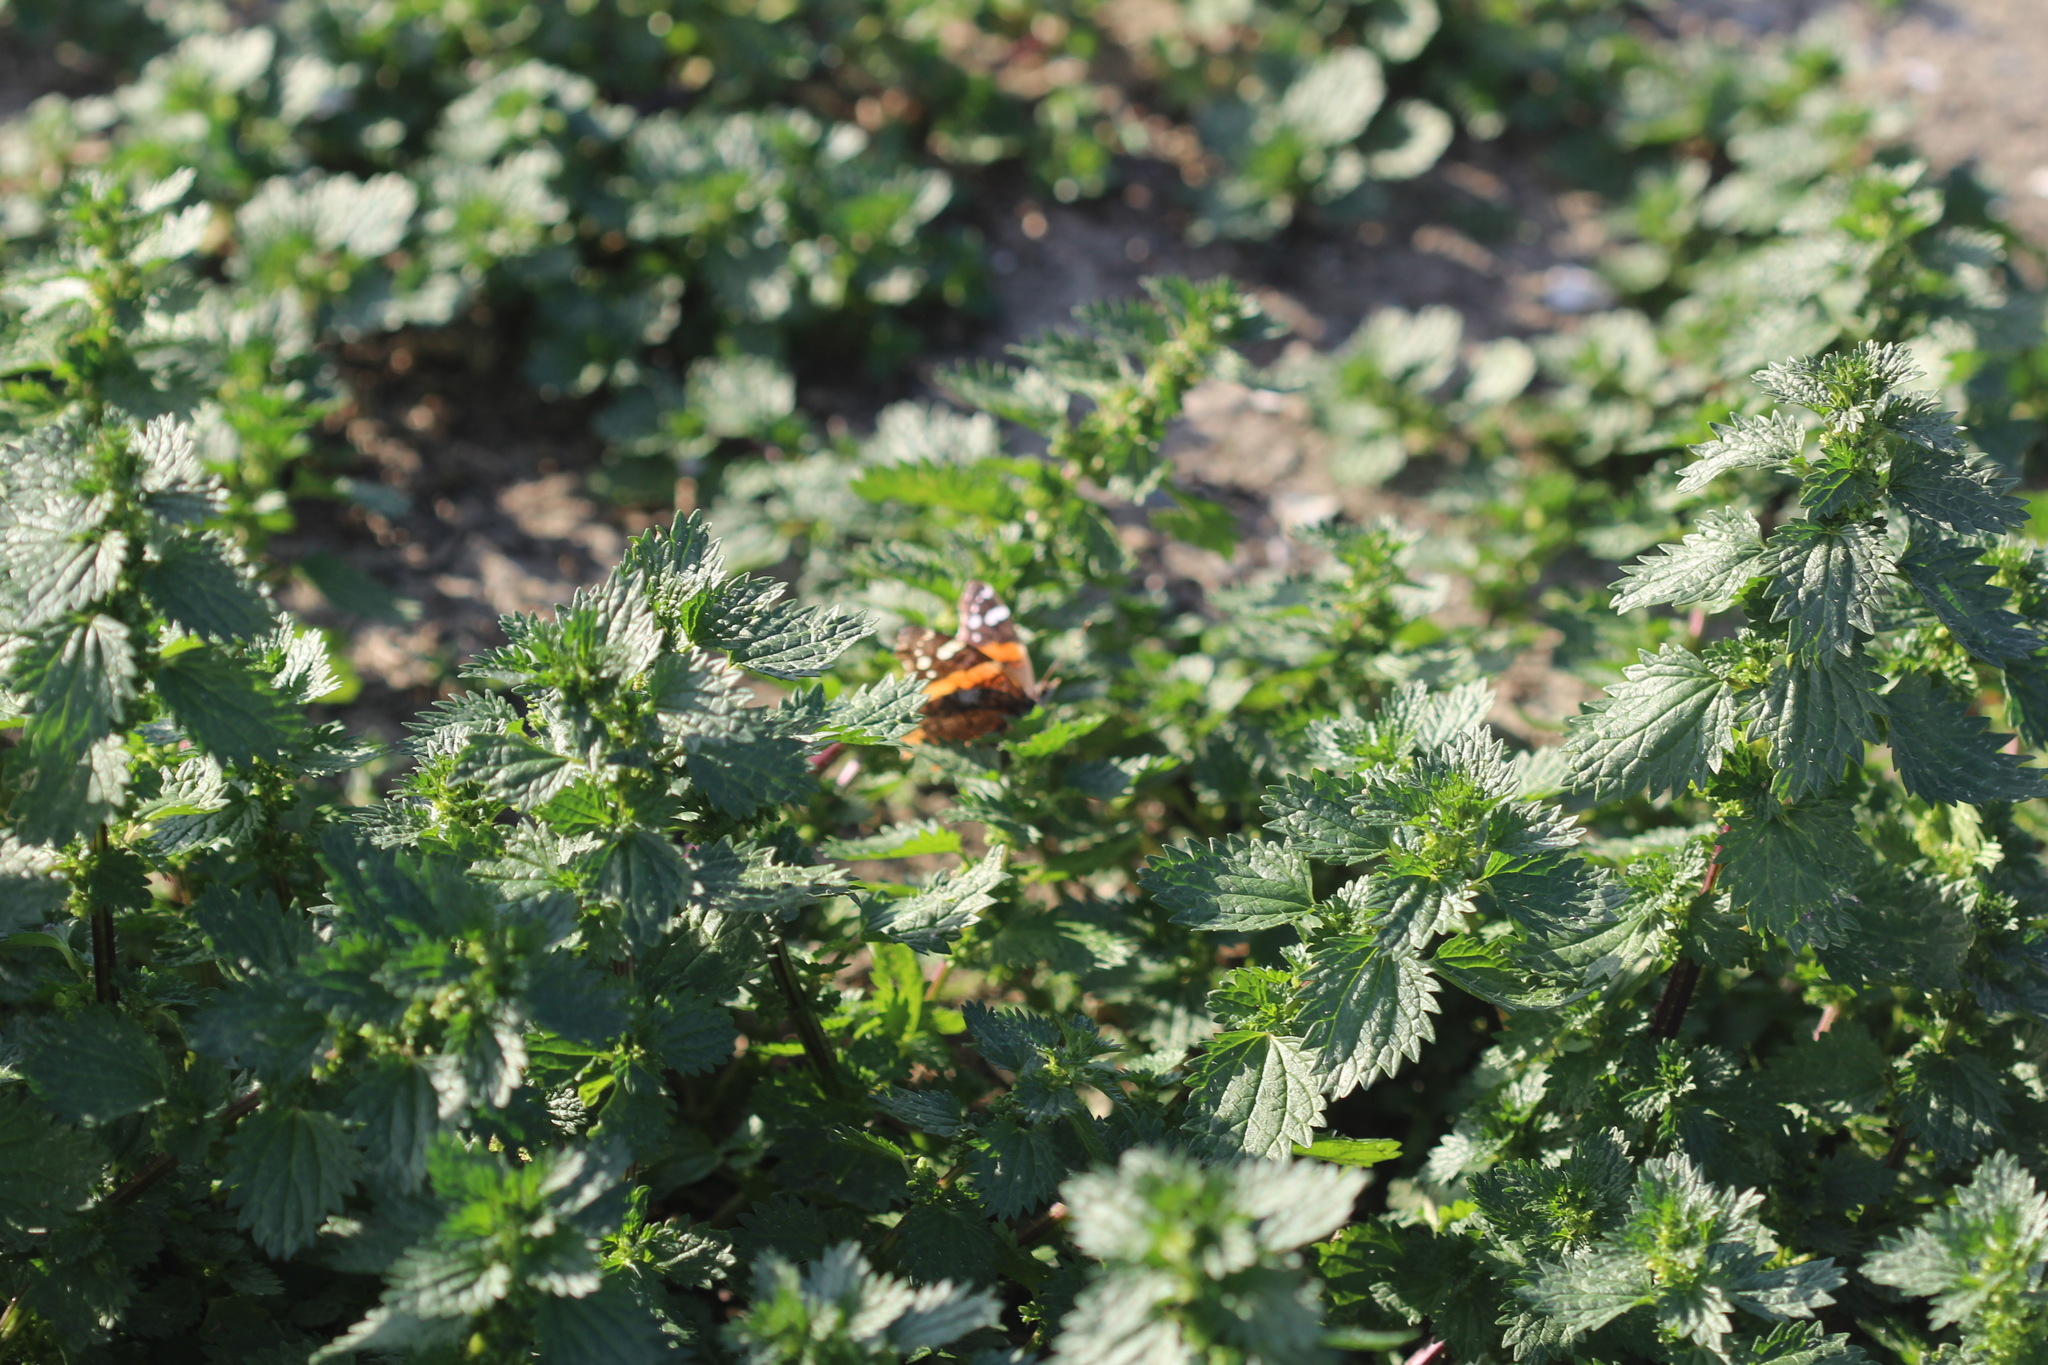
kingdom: Animalia
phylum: Arthropoda
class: Insecta
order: Lepidoptera
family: Nymphalidae
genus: Vanessa
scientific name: Vanessa atalanta
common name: Red admiral
